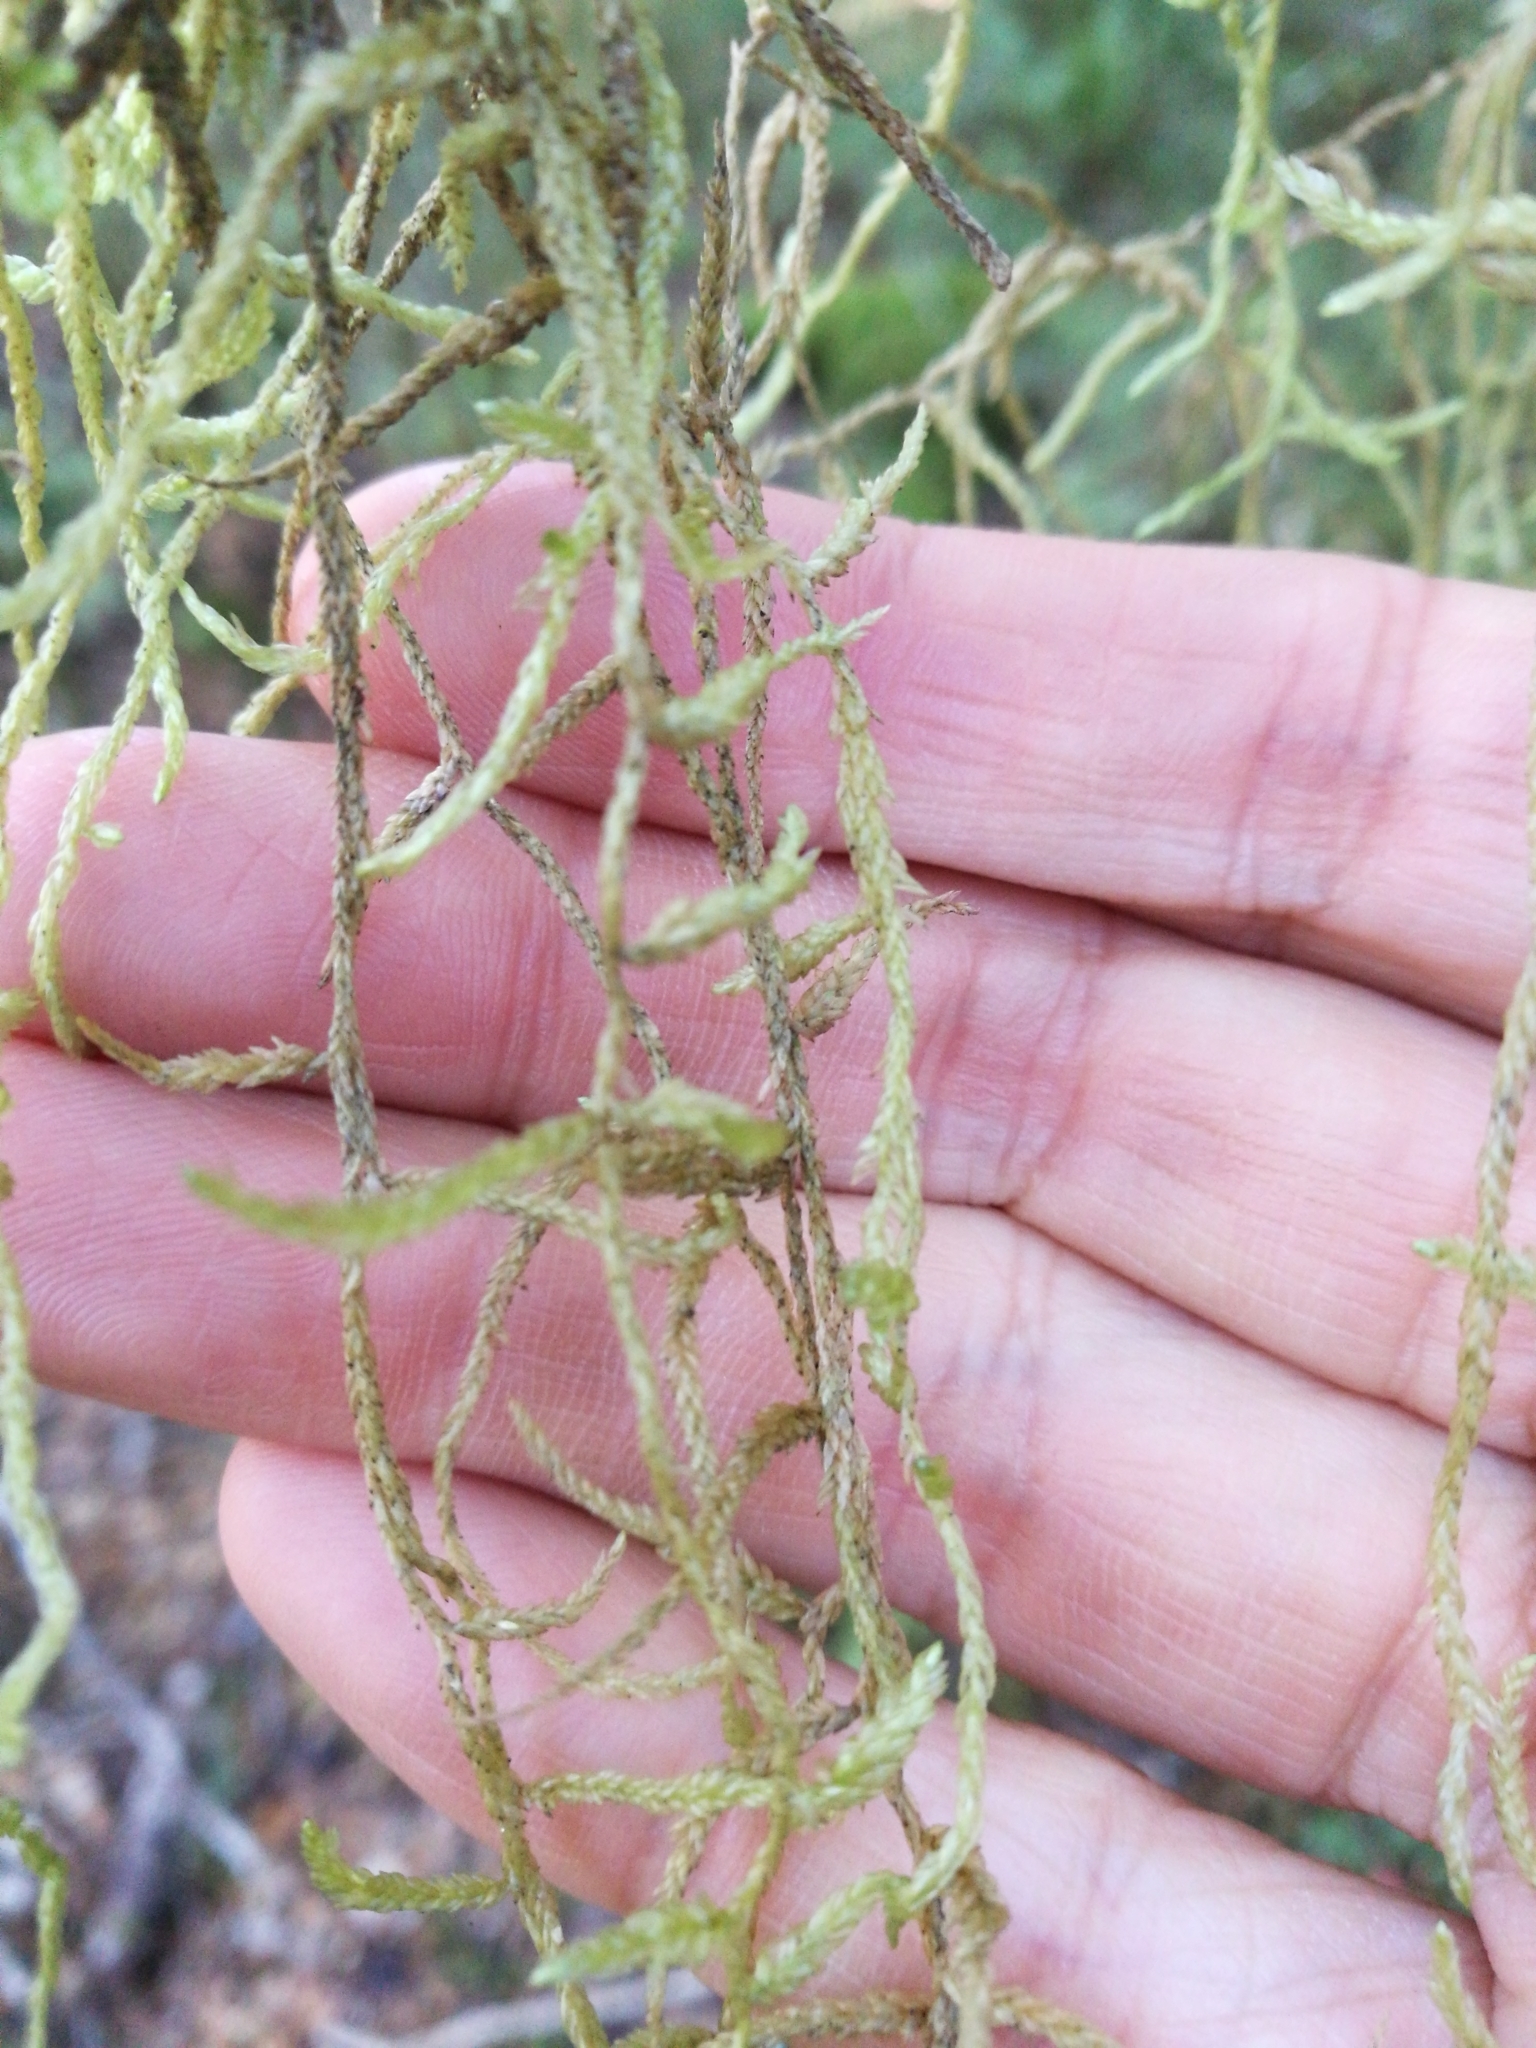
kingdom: Plantae
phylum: Bryophyta
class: Bryopsida
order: Hypnales
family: Lembophyllaceae
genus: Weymouthia
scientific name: Weymouthia
